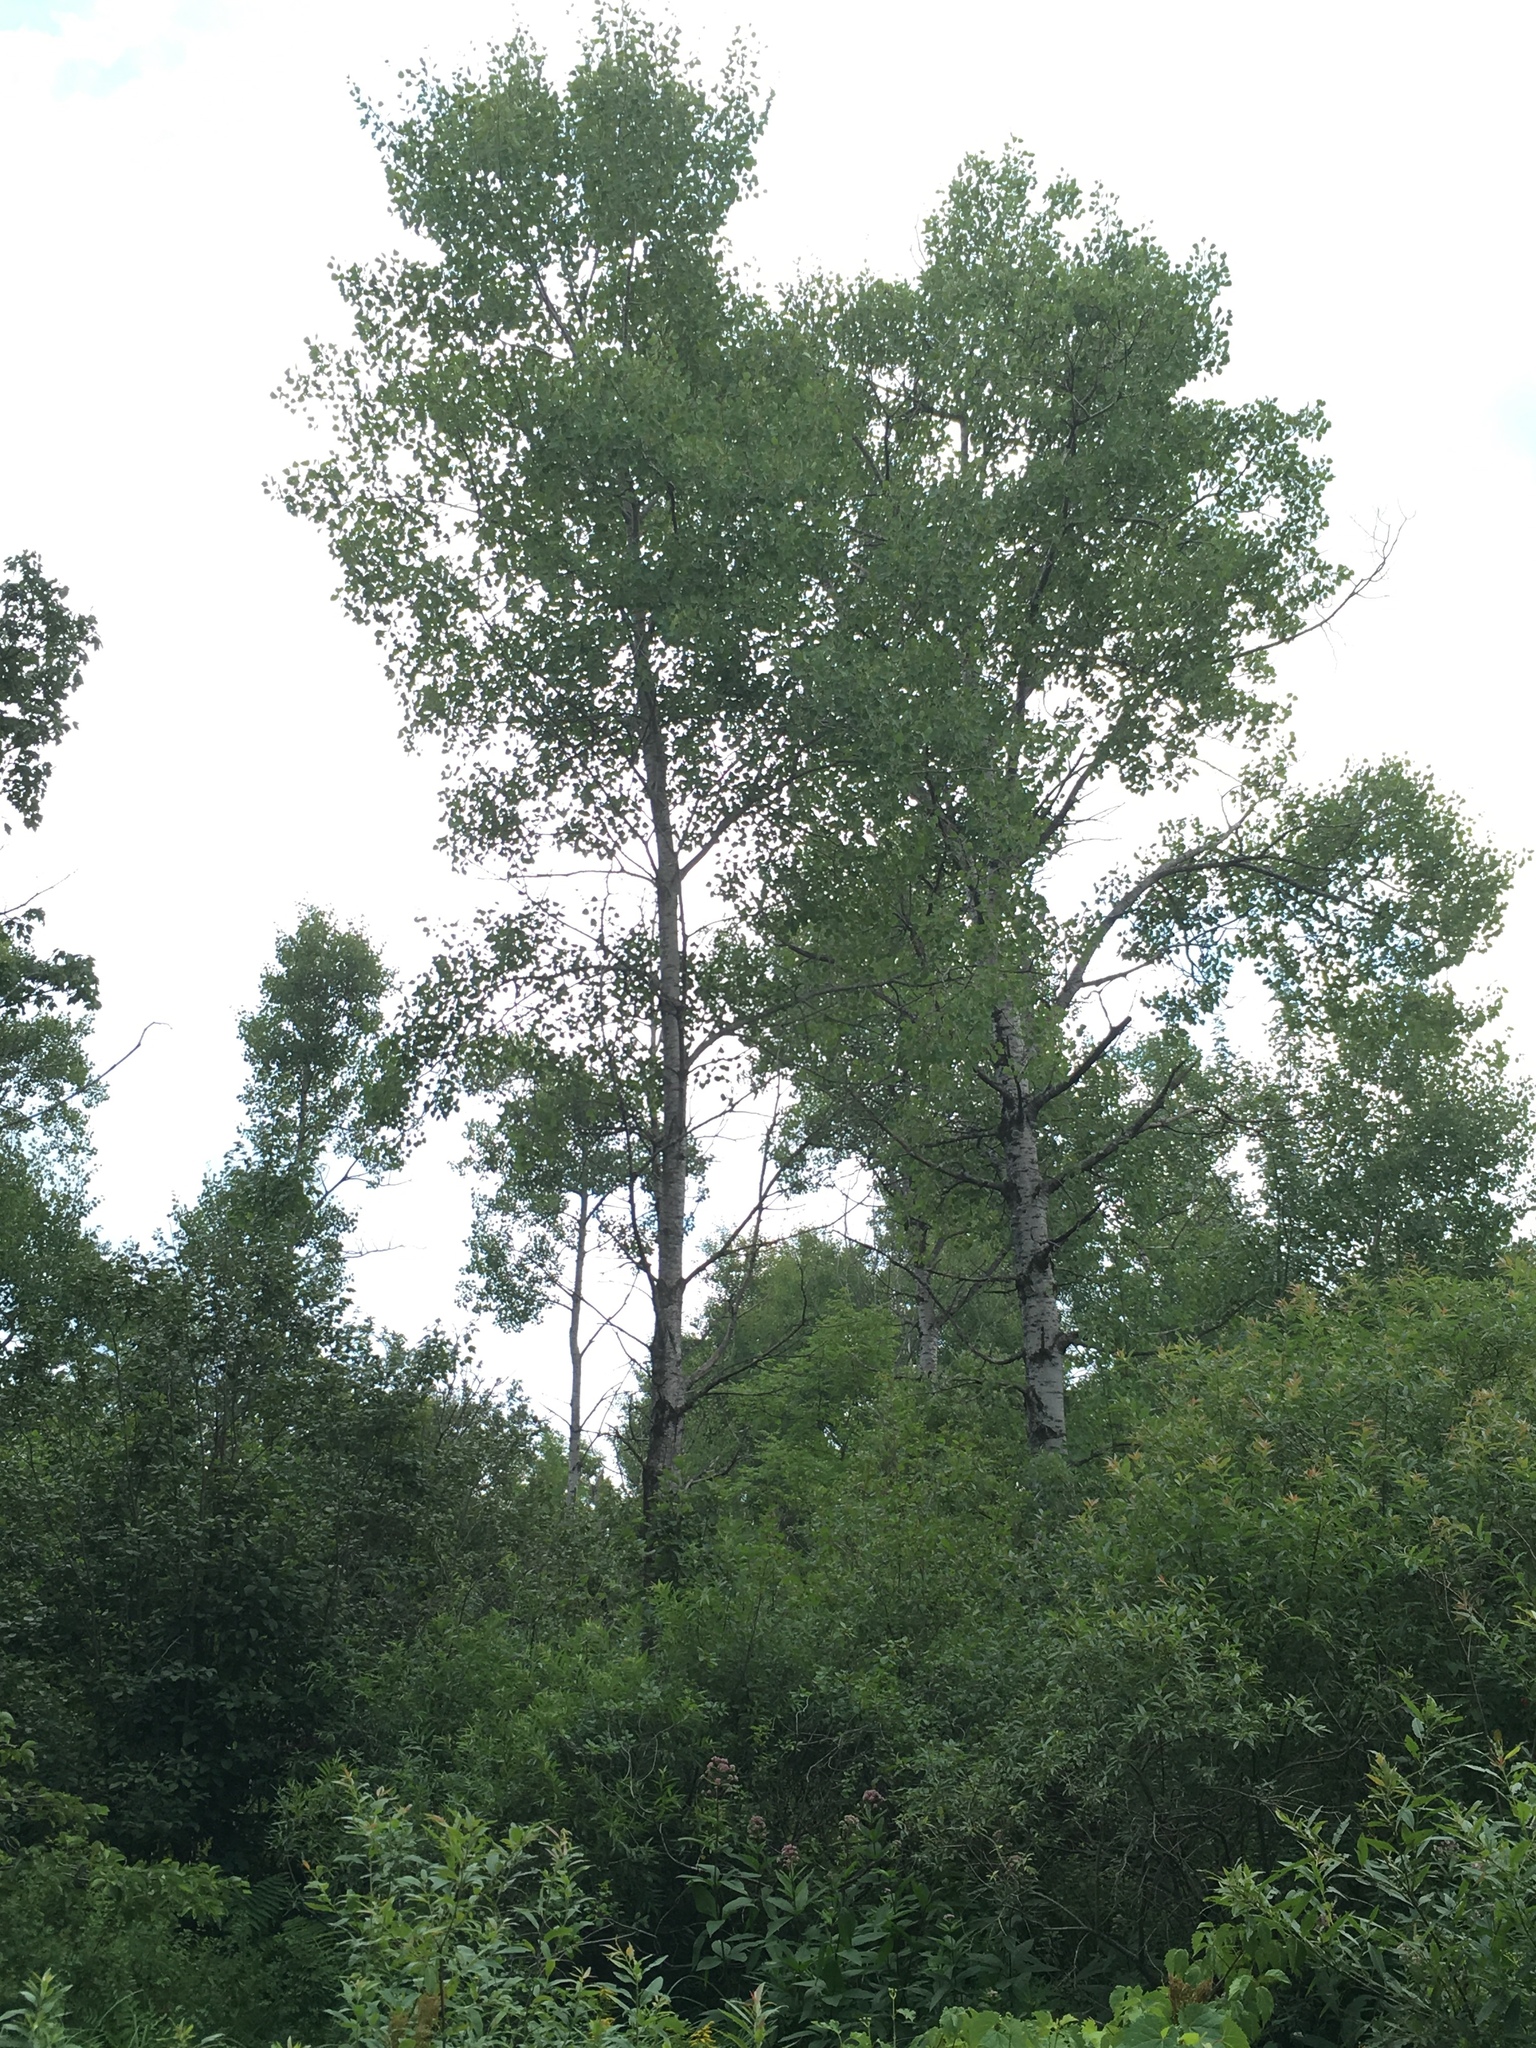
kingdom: Plantae
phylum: Tracheophyta
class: Magnoliopsida
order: Malpighiales
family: Salicaceae
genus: Populus
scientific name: Populus tremuloides
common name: Quaking aspen
